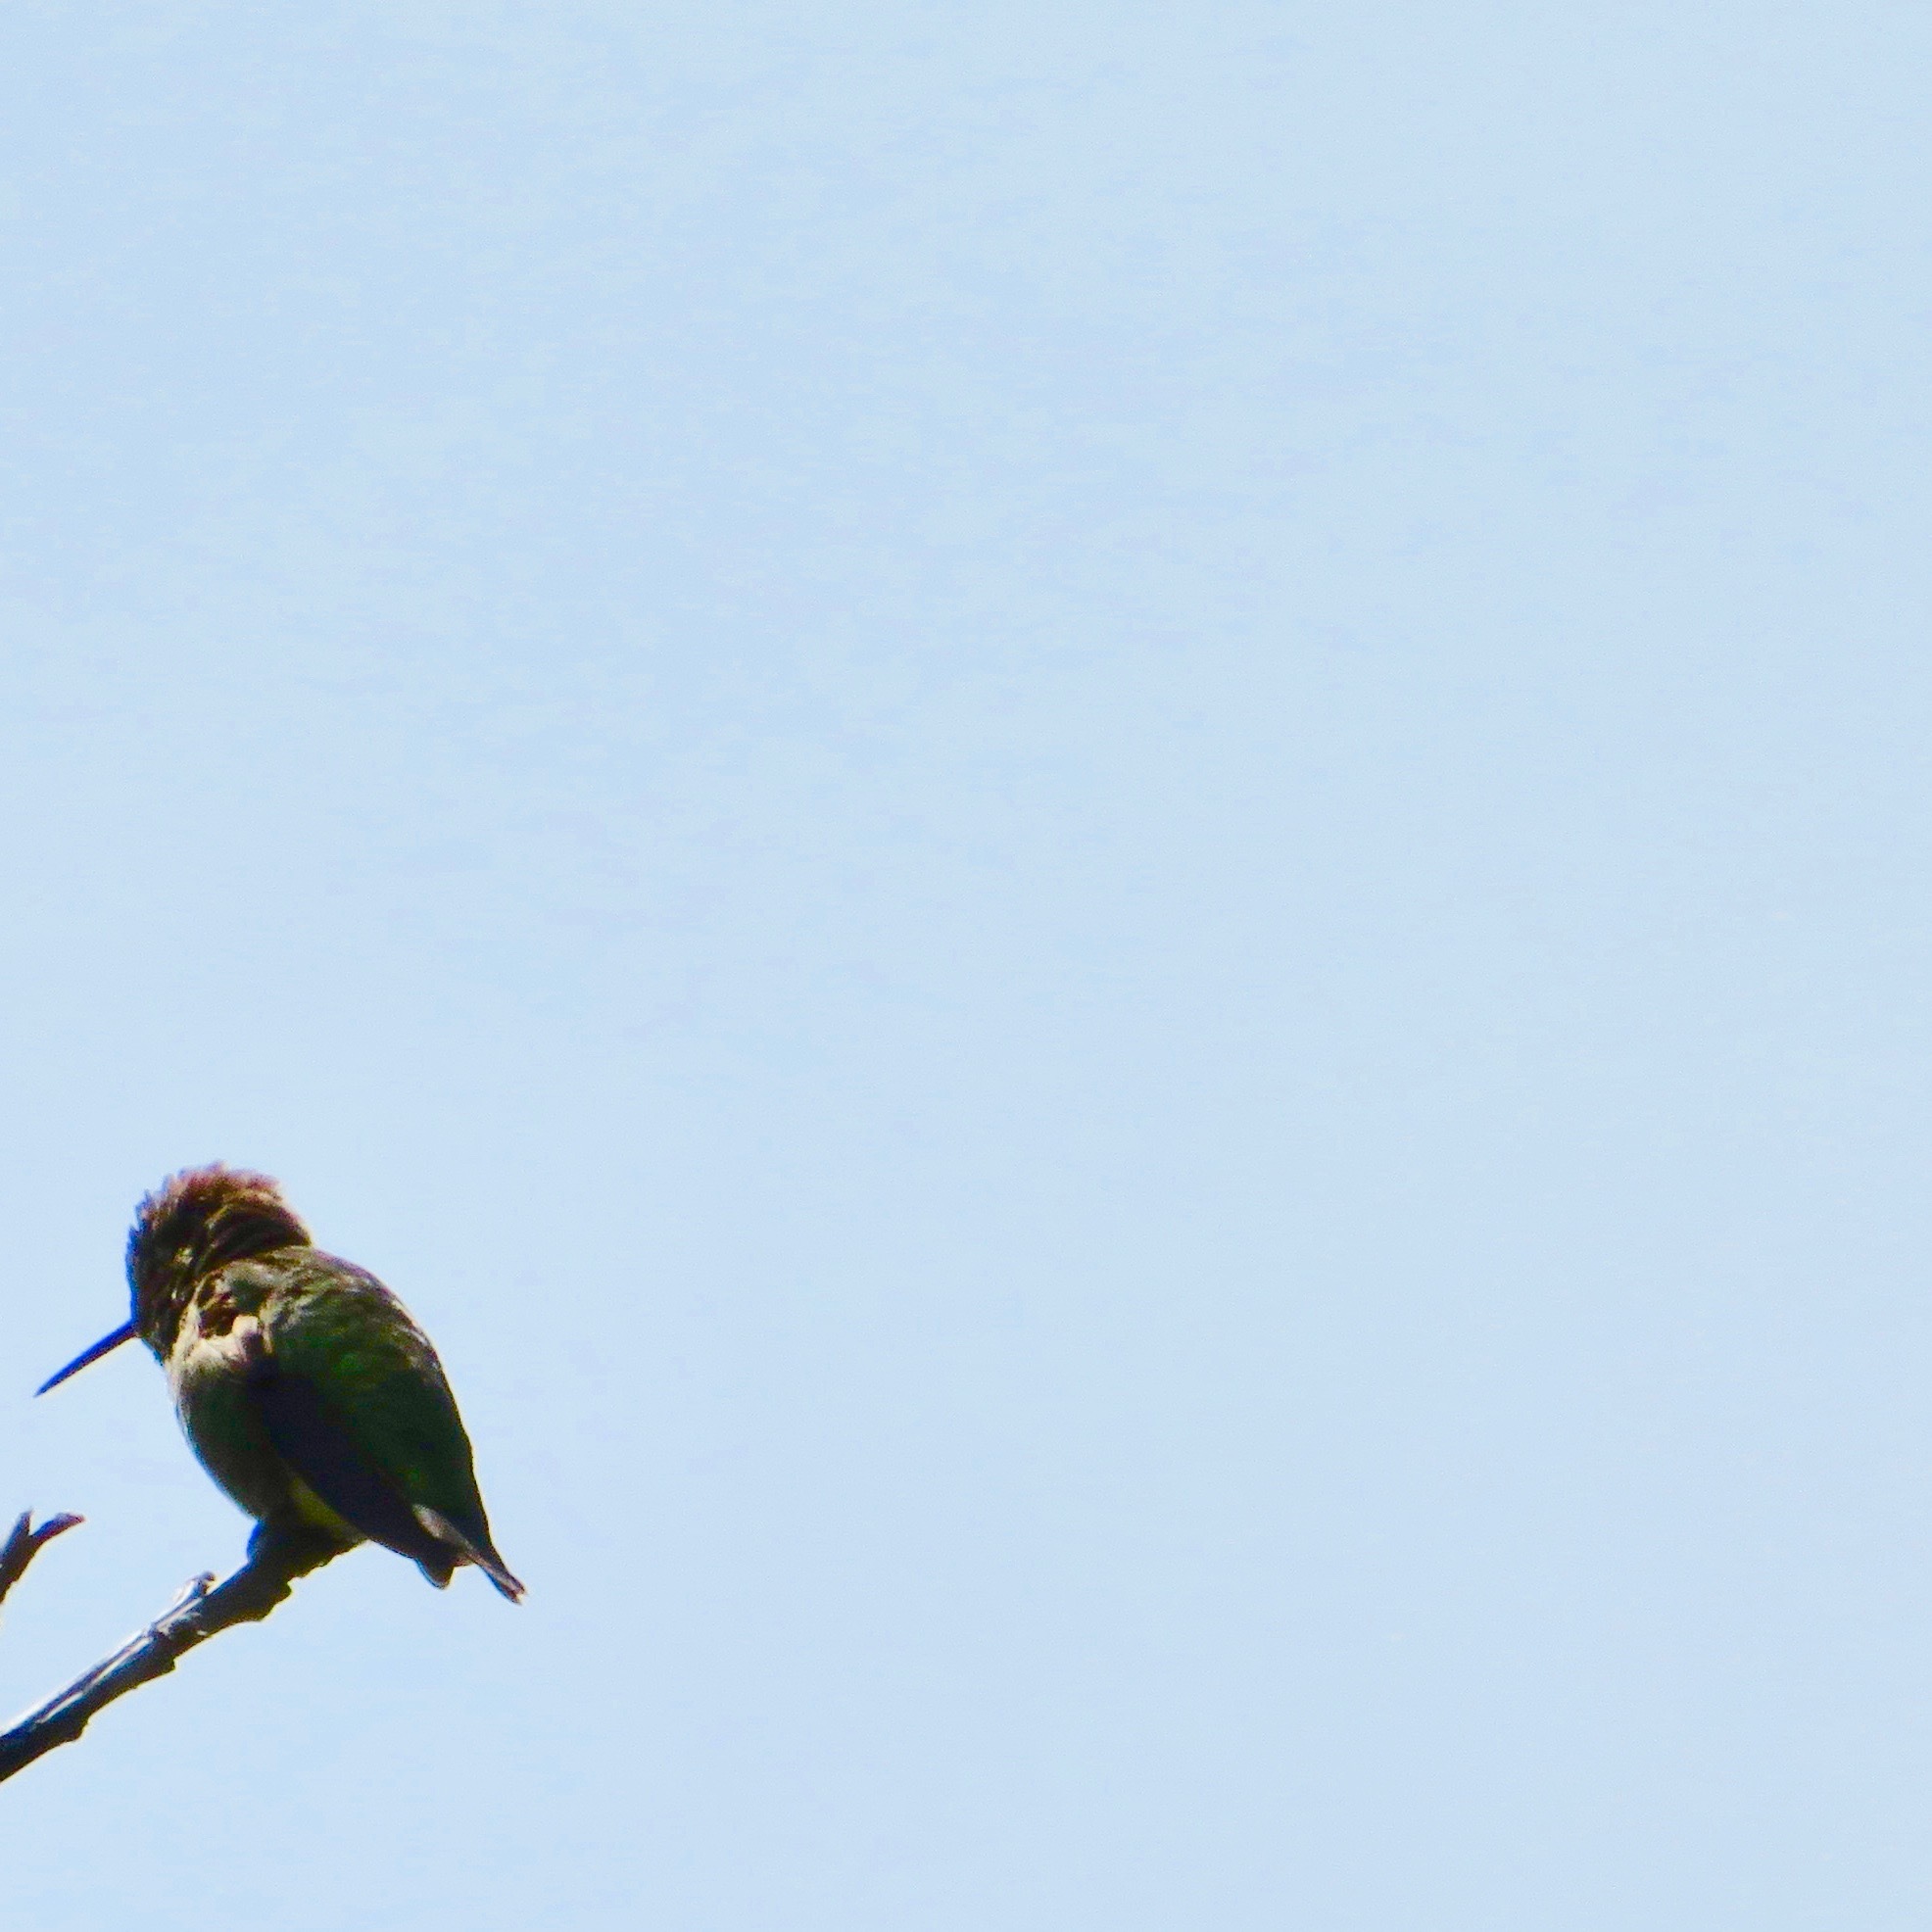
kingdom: Animalia
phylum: Chordata
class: Aves
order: Apodiformes
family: Trochilidae
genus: Calypte
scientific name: Calypte anna
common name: Anna's hummingbird
